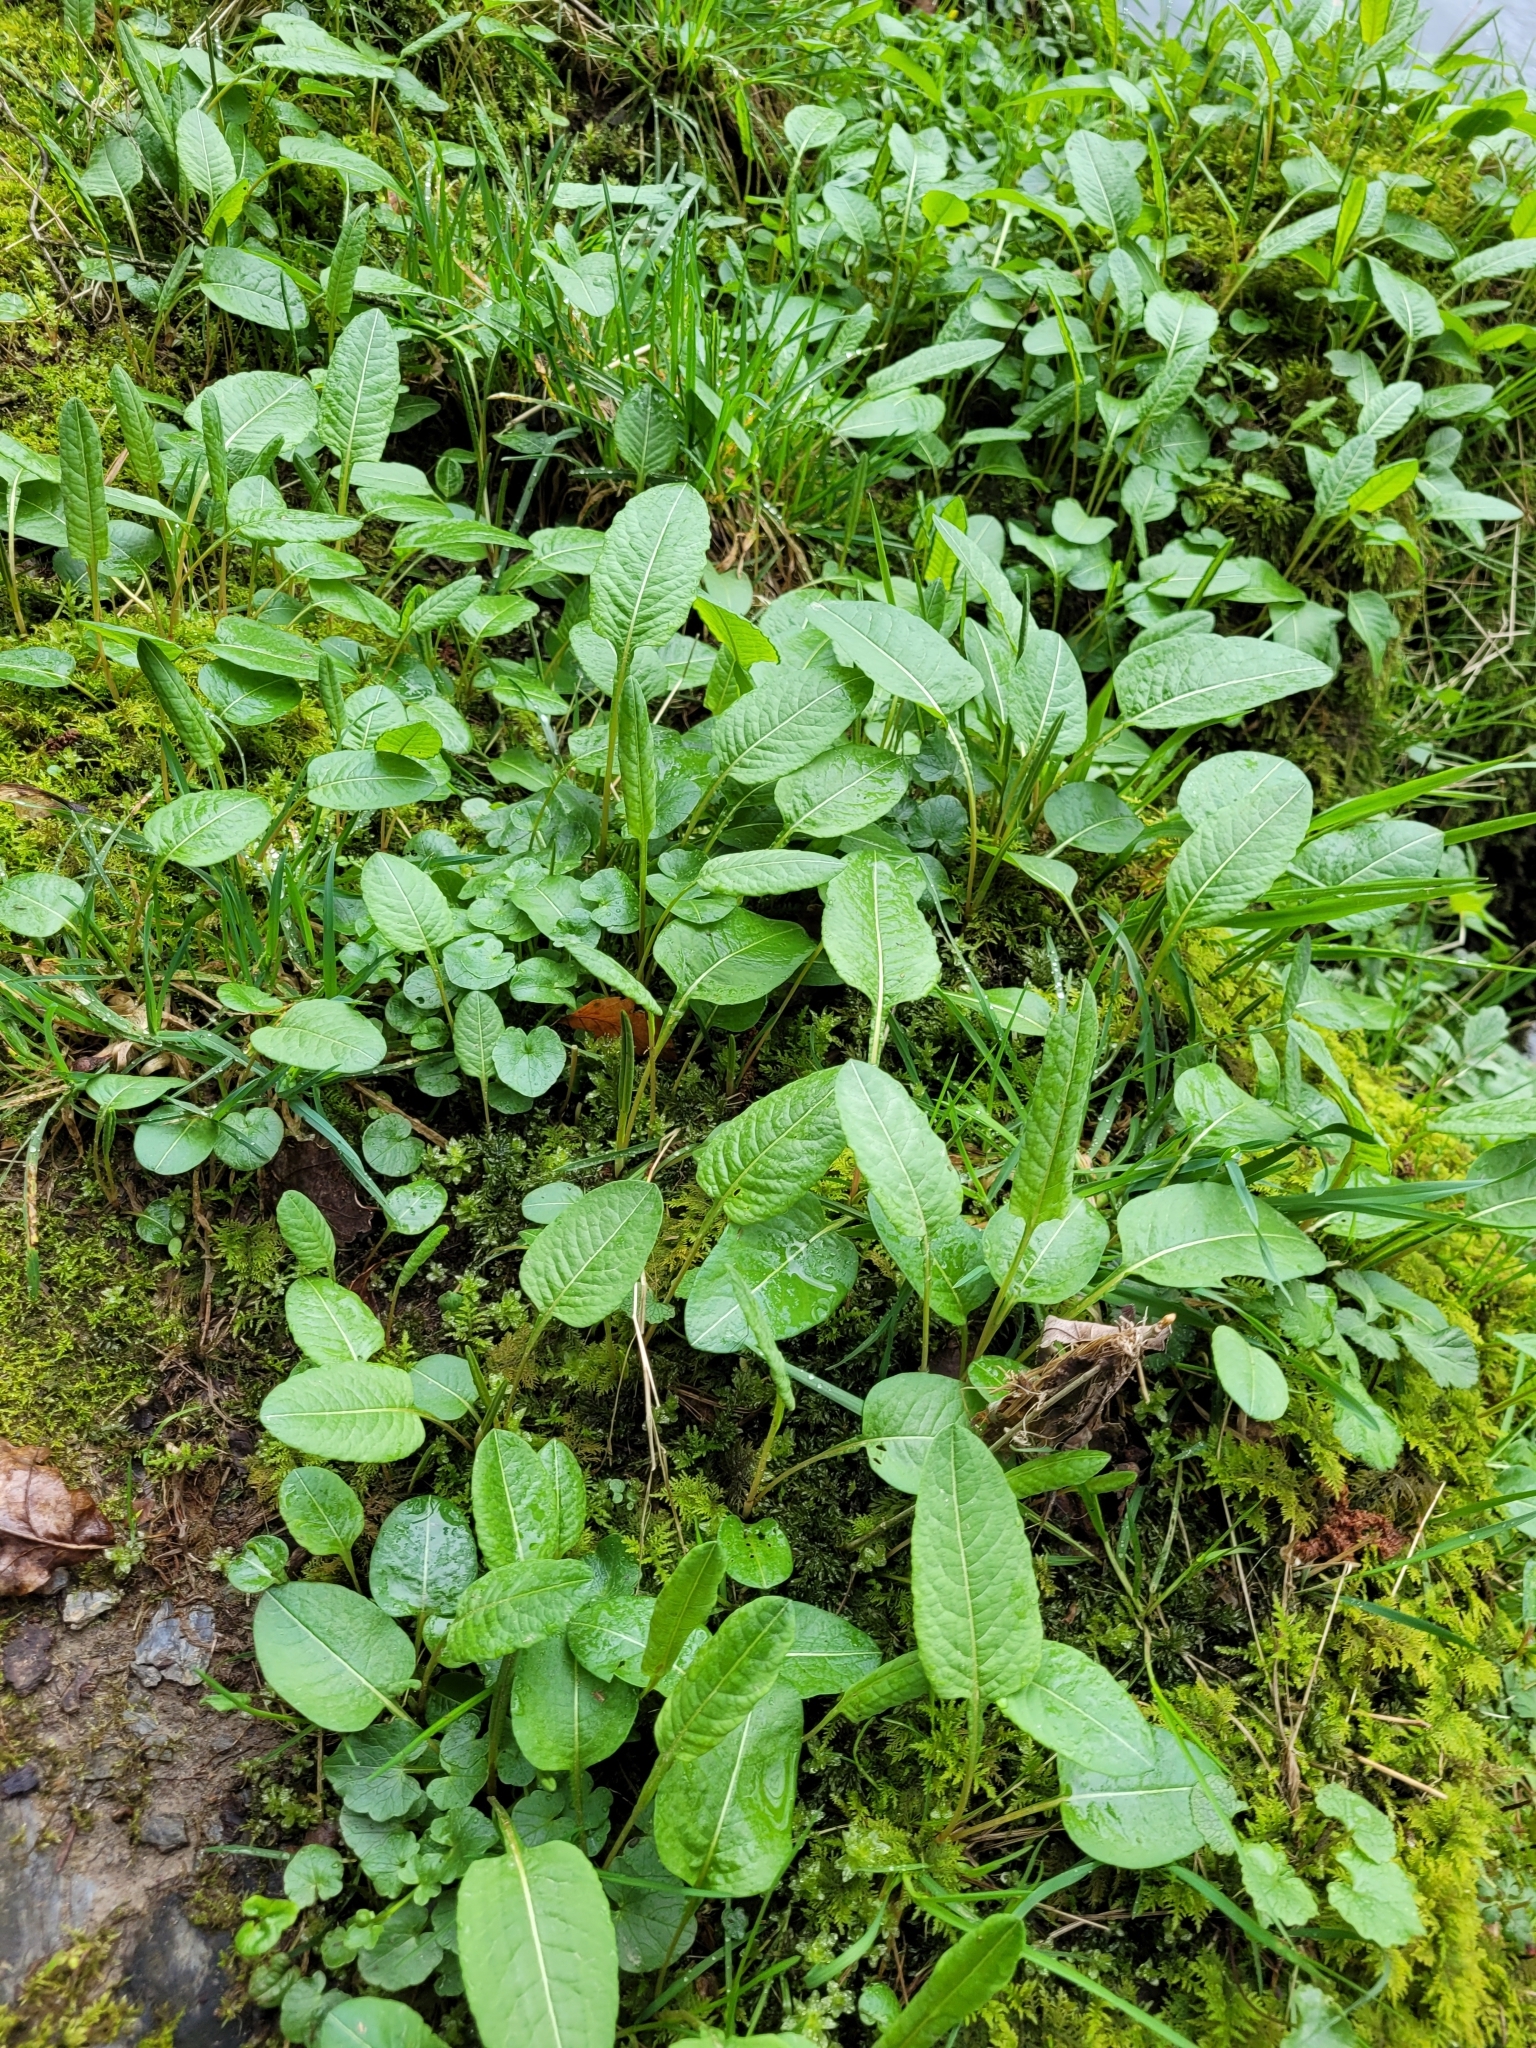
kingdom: Plantae
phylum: Tracheophyta
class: Magnoliopsida
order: Caryophyllales
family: Polygonaceae
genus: Bistorta
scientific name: Bistorta officinalis
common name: Common bistort
